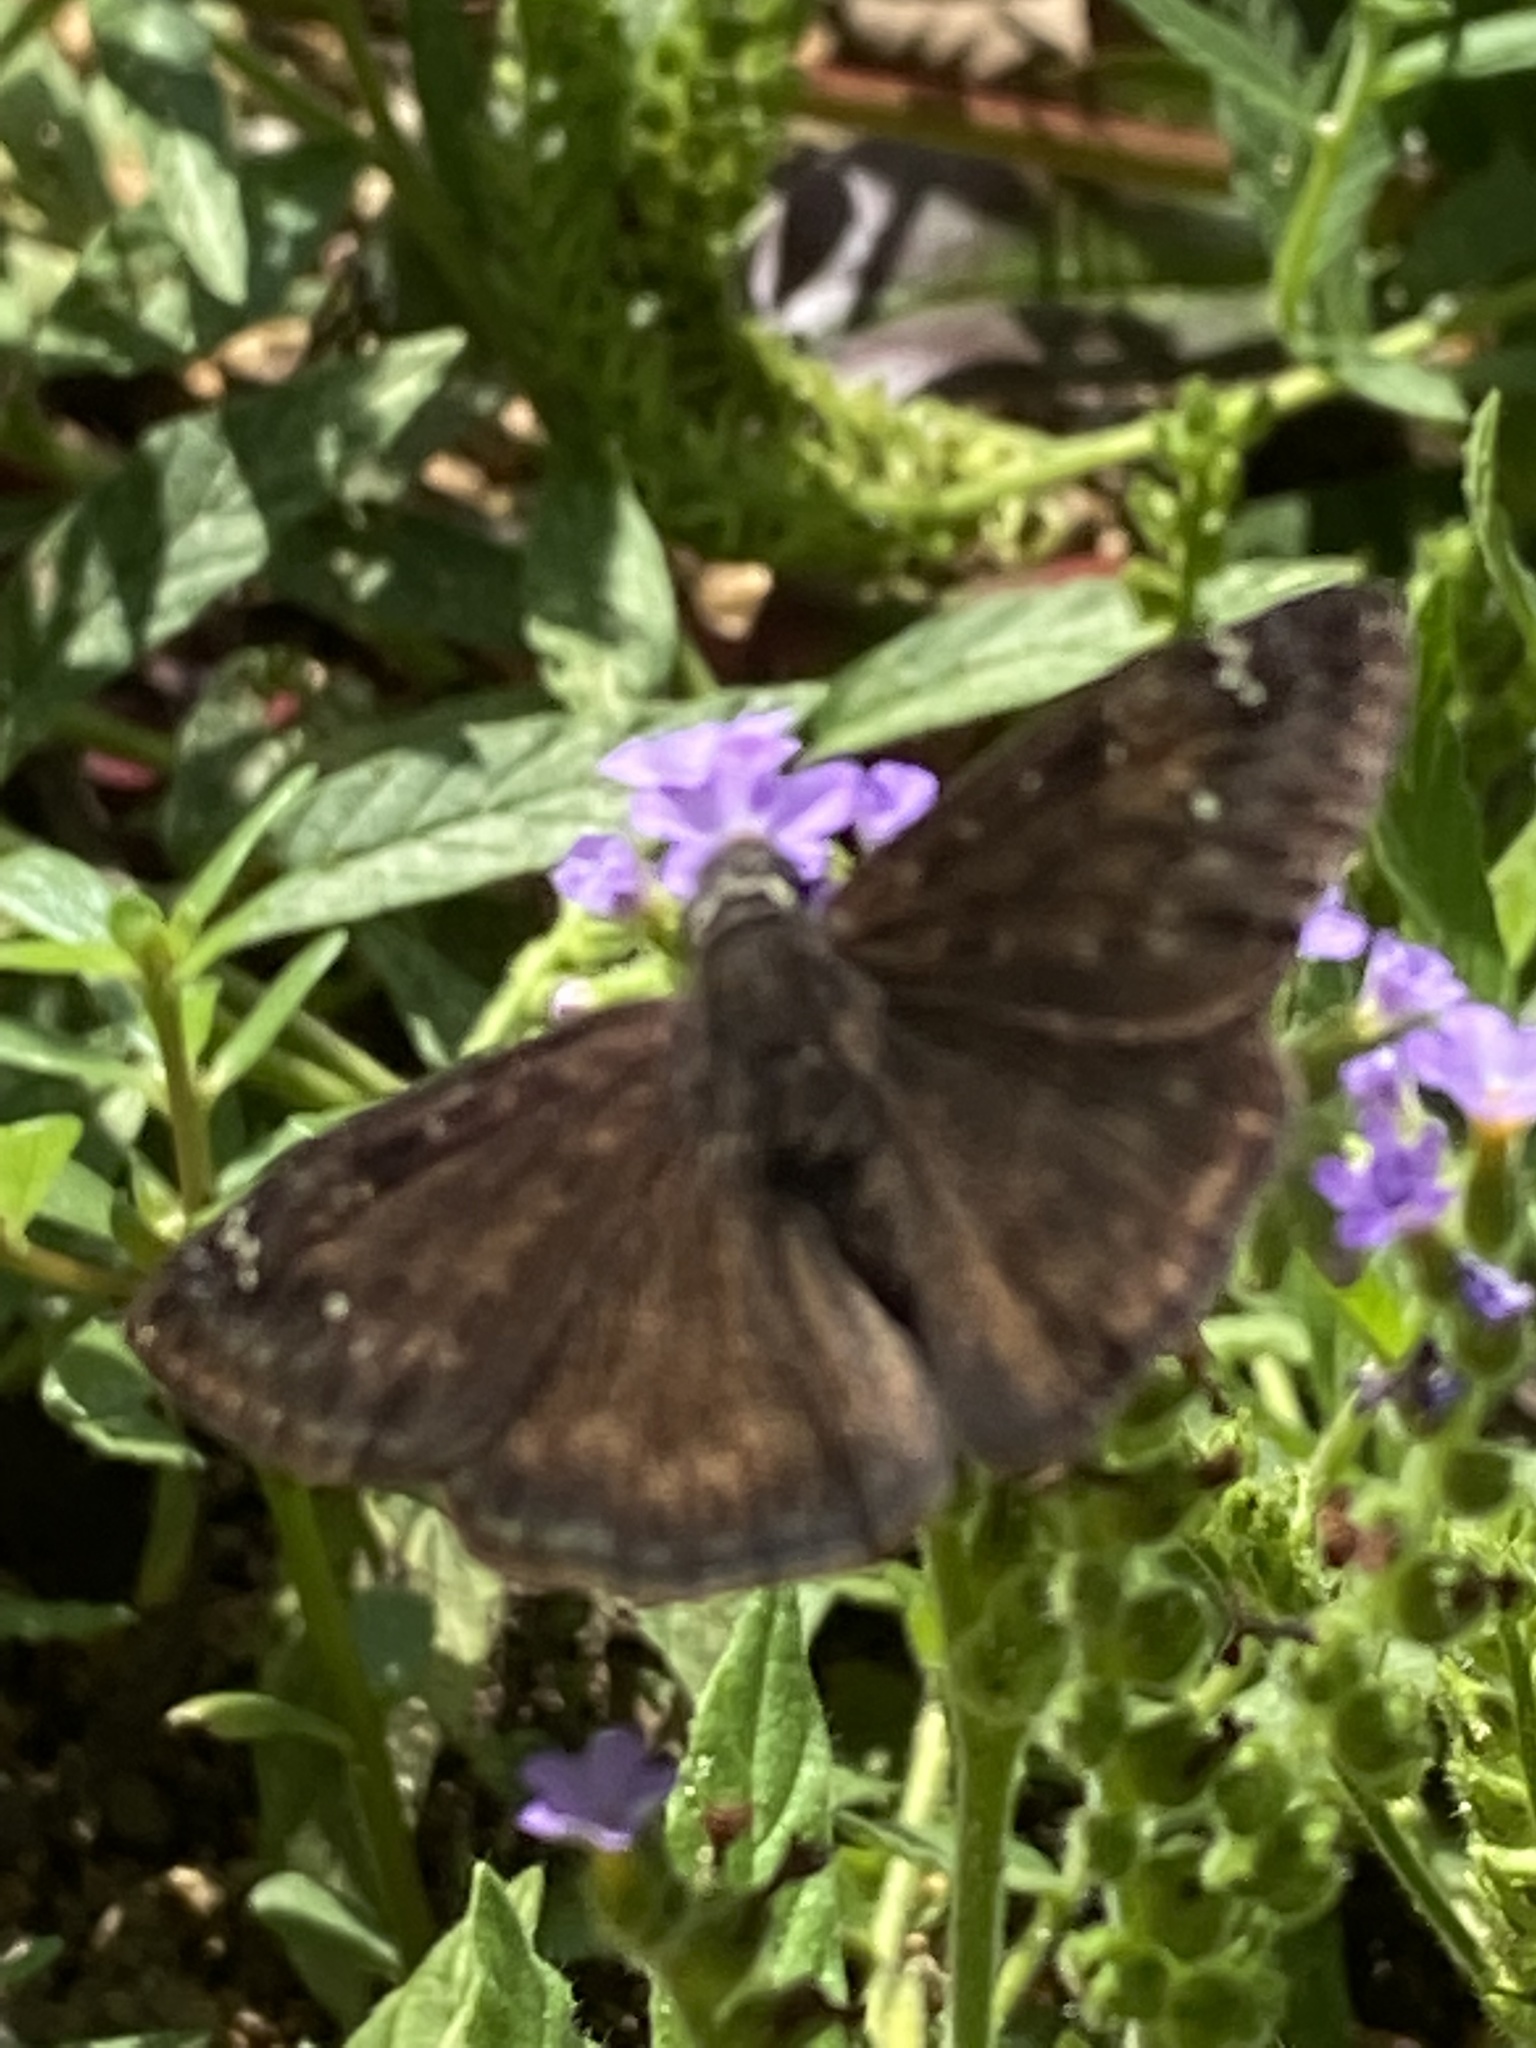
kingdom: Animalia
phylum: Arthropoda
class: Insecta
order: Lepidoptera
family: Hesperiidae
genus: Erynnis
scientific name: Erynnis horatius
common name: Horace's duskywing
